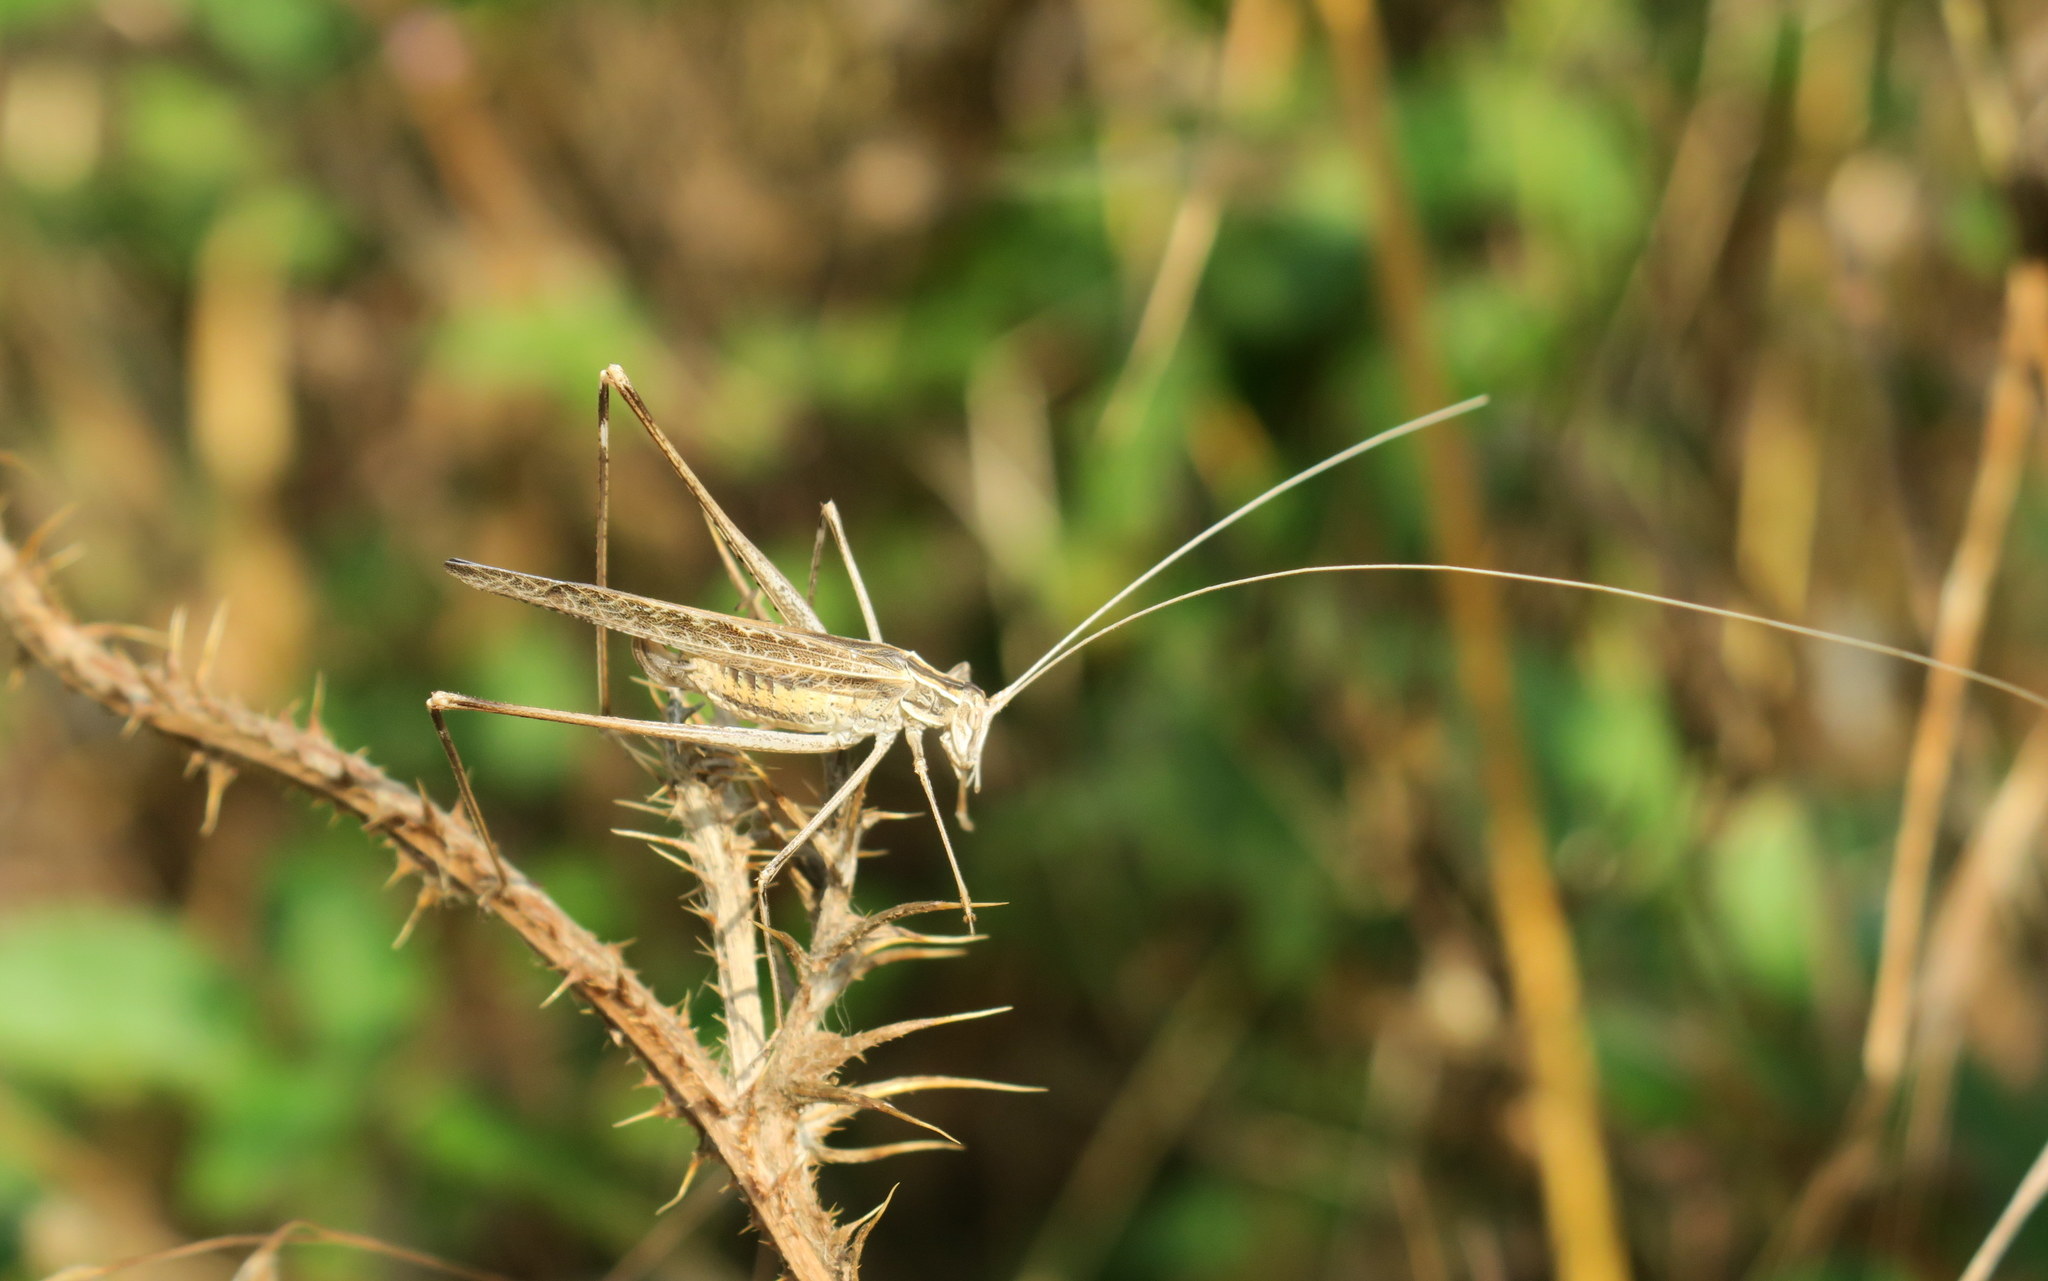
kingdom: Animalia
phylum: Arthropoda
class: Insecta
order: Orthoptera
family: Tettigoniidae
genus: Tylopsis
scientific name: Tylopsis lilifolia
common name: Lily bush-cricket
